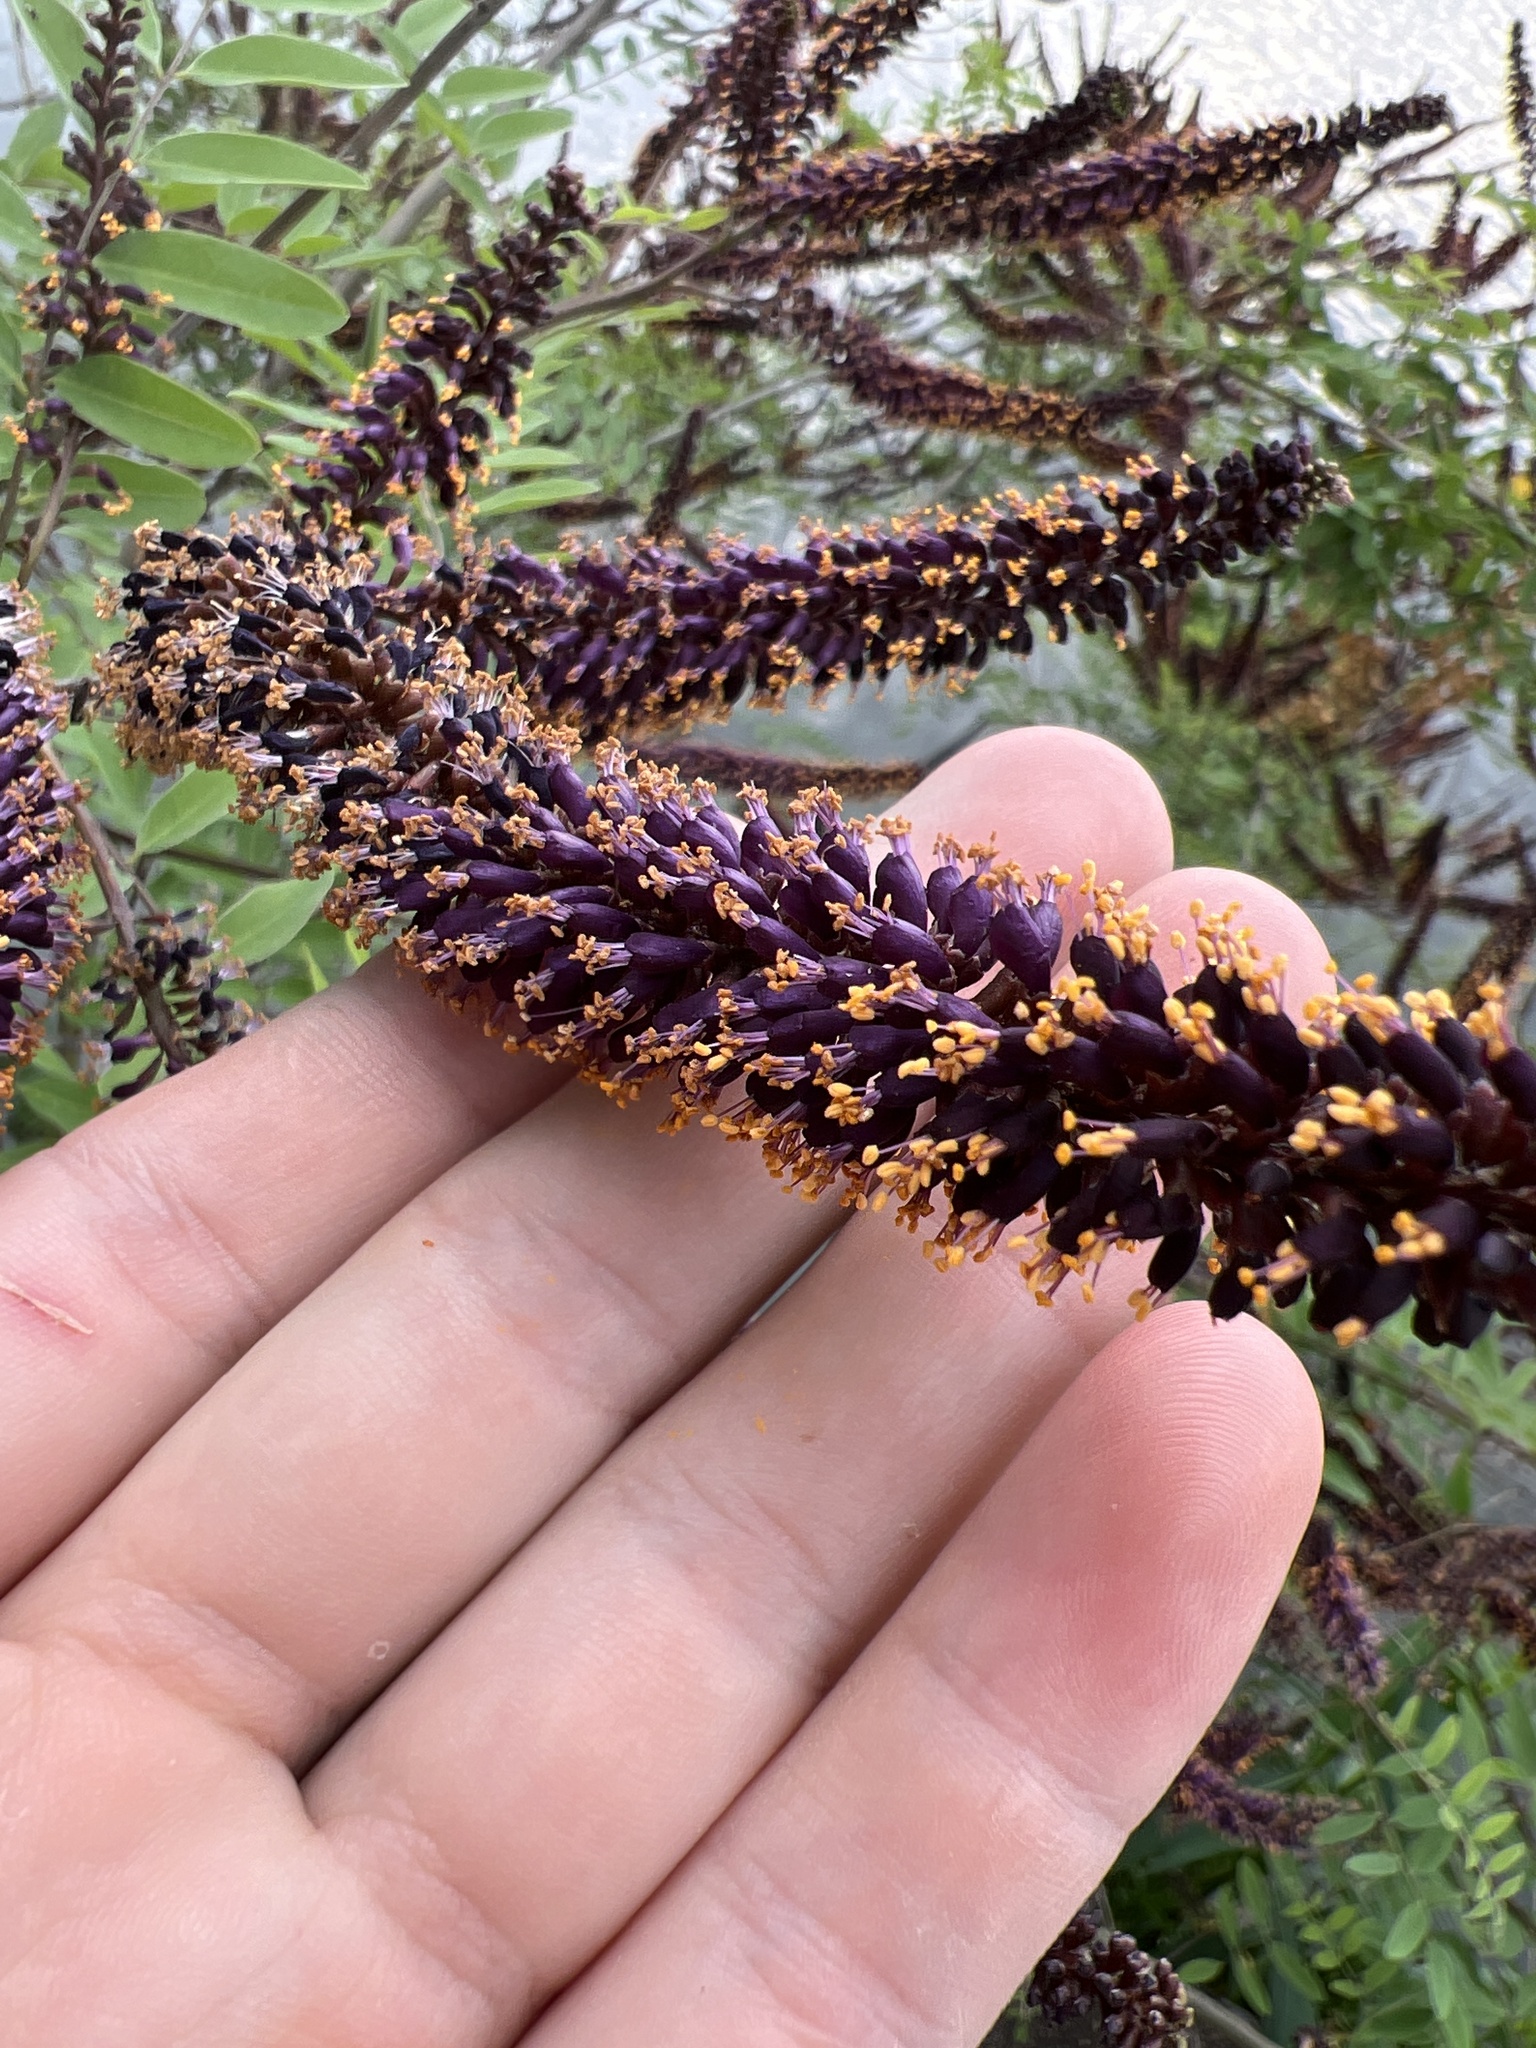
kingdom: Plantae
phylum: Tracheophyta
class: Magnoliopsida
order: Fabales
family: Fabaceae
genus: Amorpha
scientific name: Amorpha fruticosa
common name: False indigo
